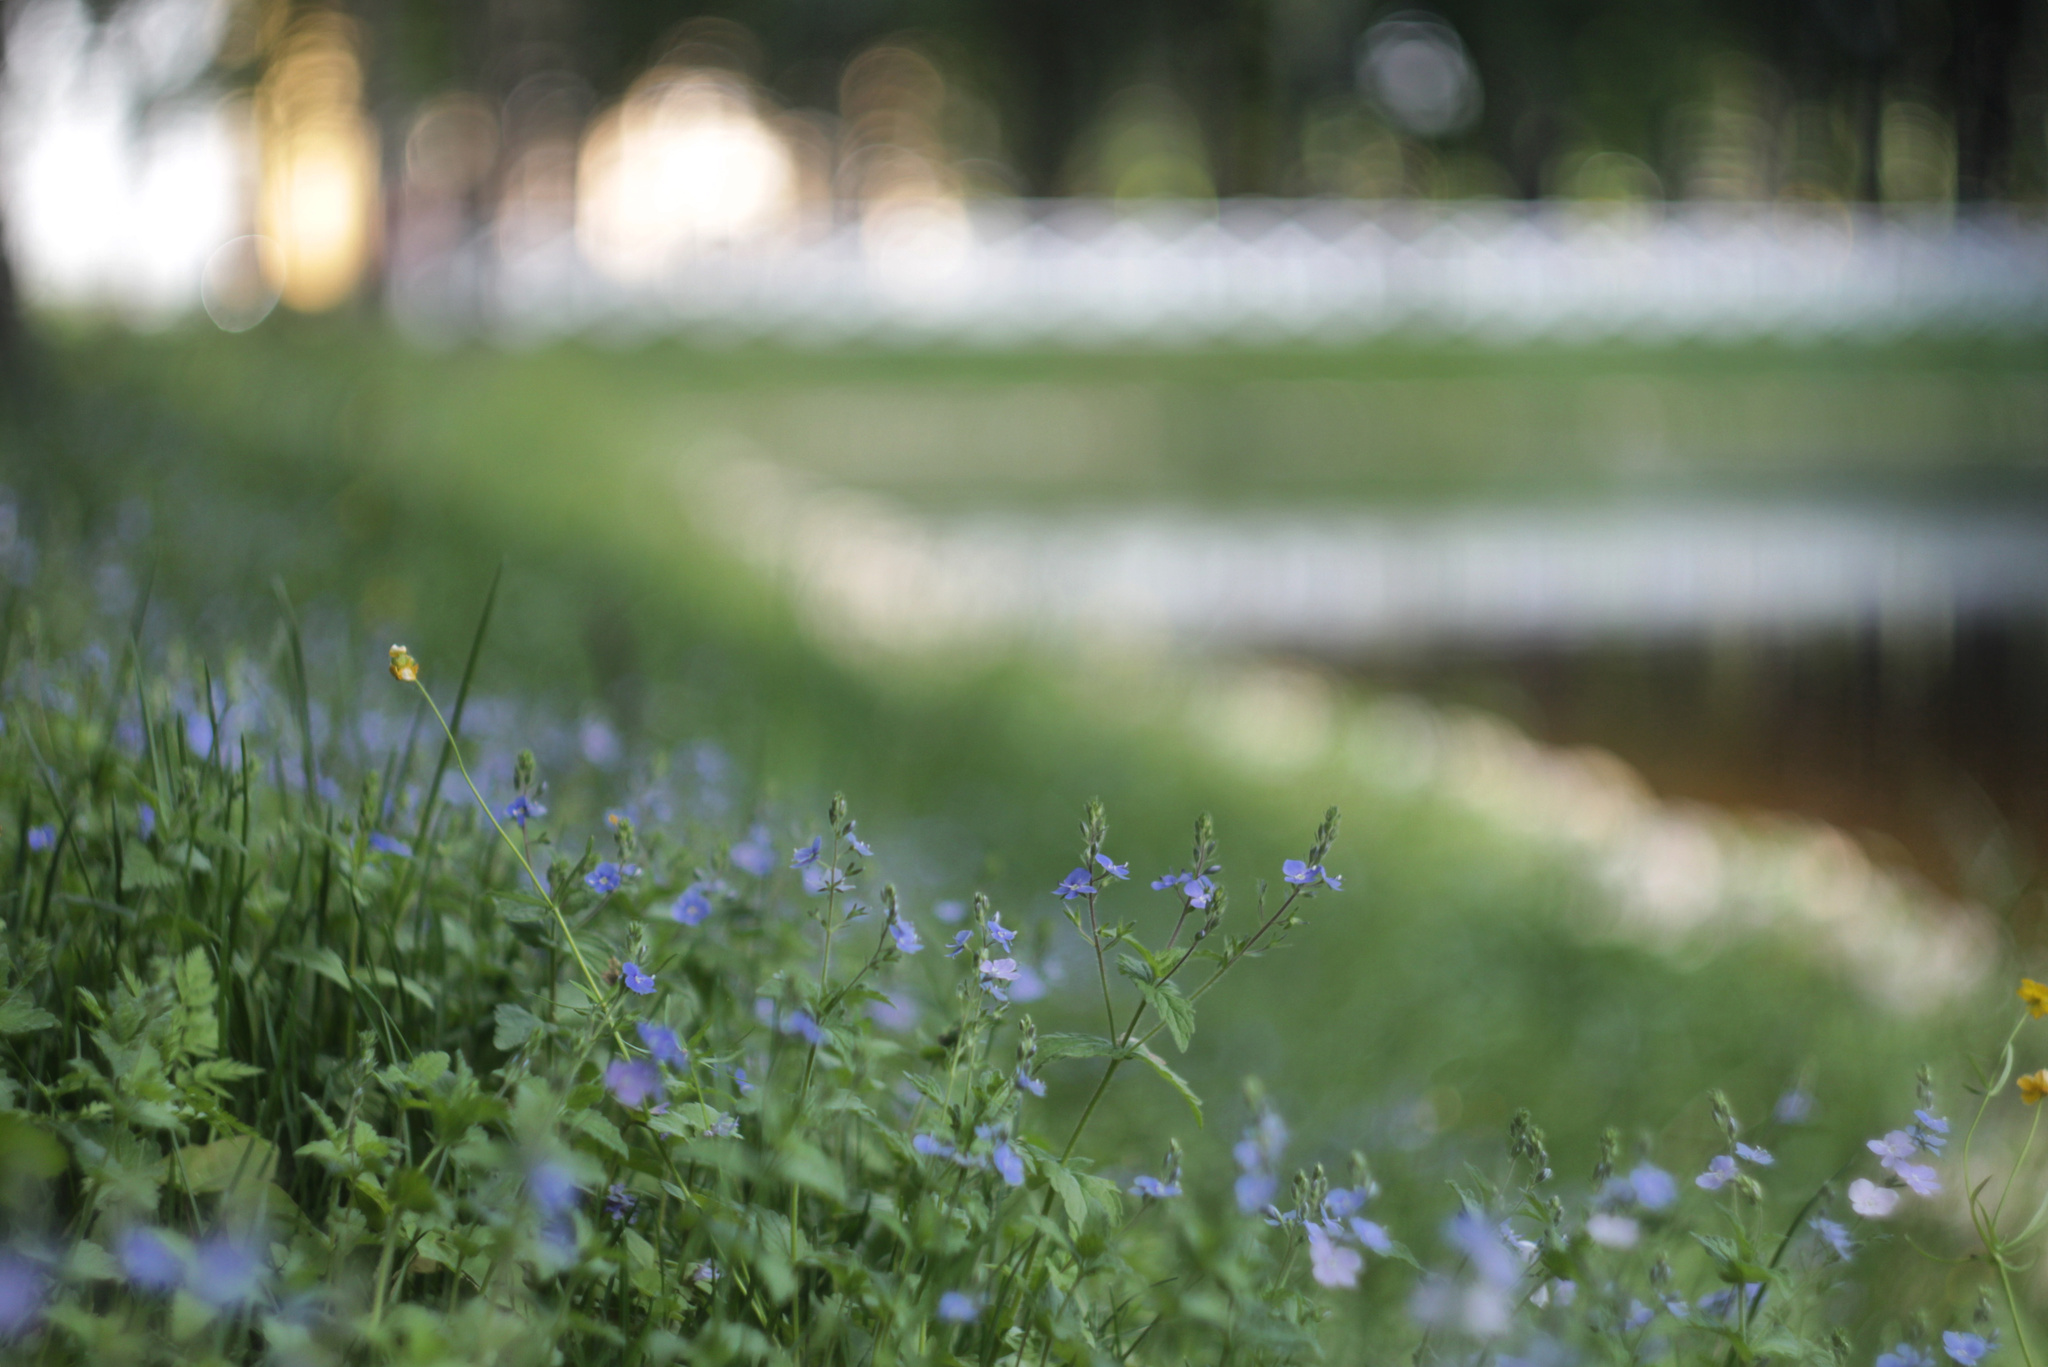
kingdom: Plantae
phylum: Tracheophyta
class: Magnoliopsida
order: Lamiales
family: Plantaginaceae
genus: Veronica
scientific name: Veronica chamaedrys
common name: Germander speedwell
